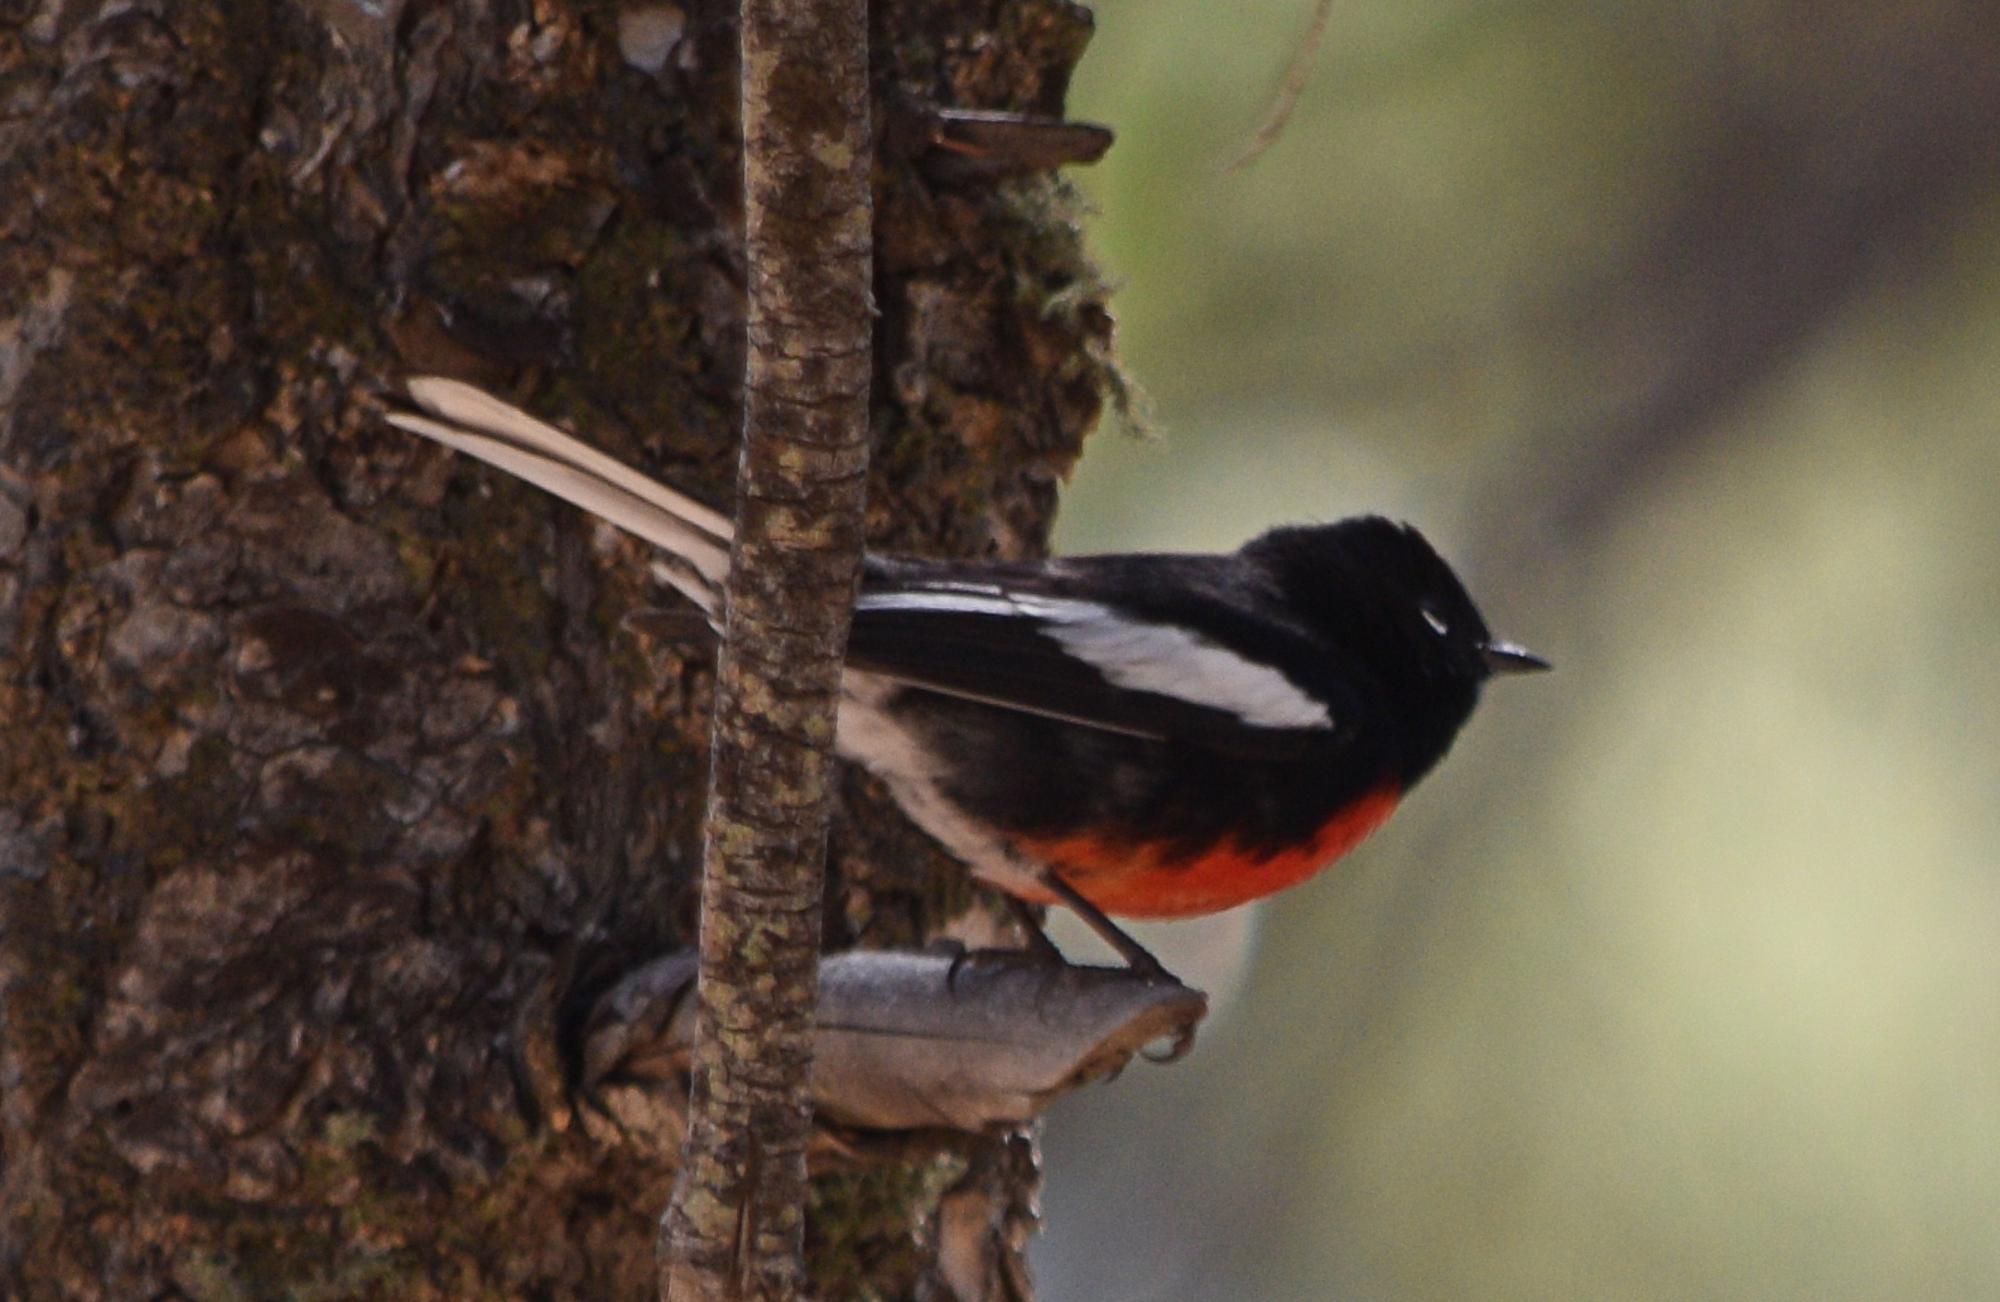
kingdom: Animalia
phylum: Chordata
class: Aves
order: Passeriformes
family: Parulidae
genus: Myioborus
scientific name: Myioborus pictus
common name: Painted whitestart
